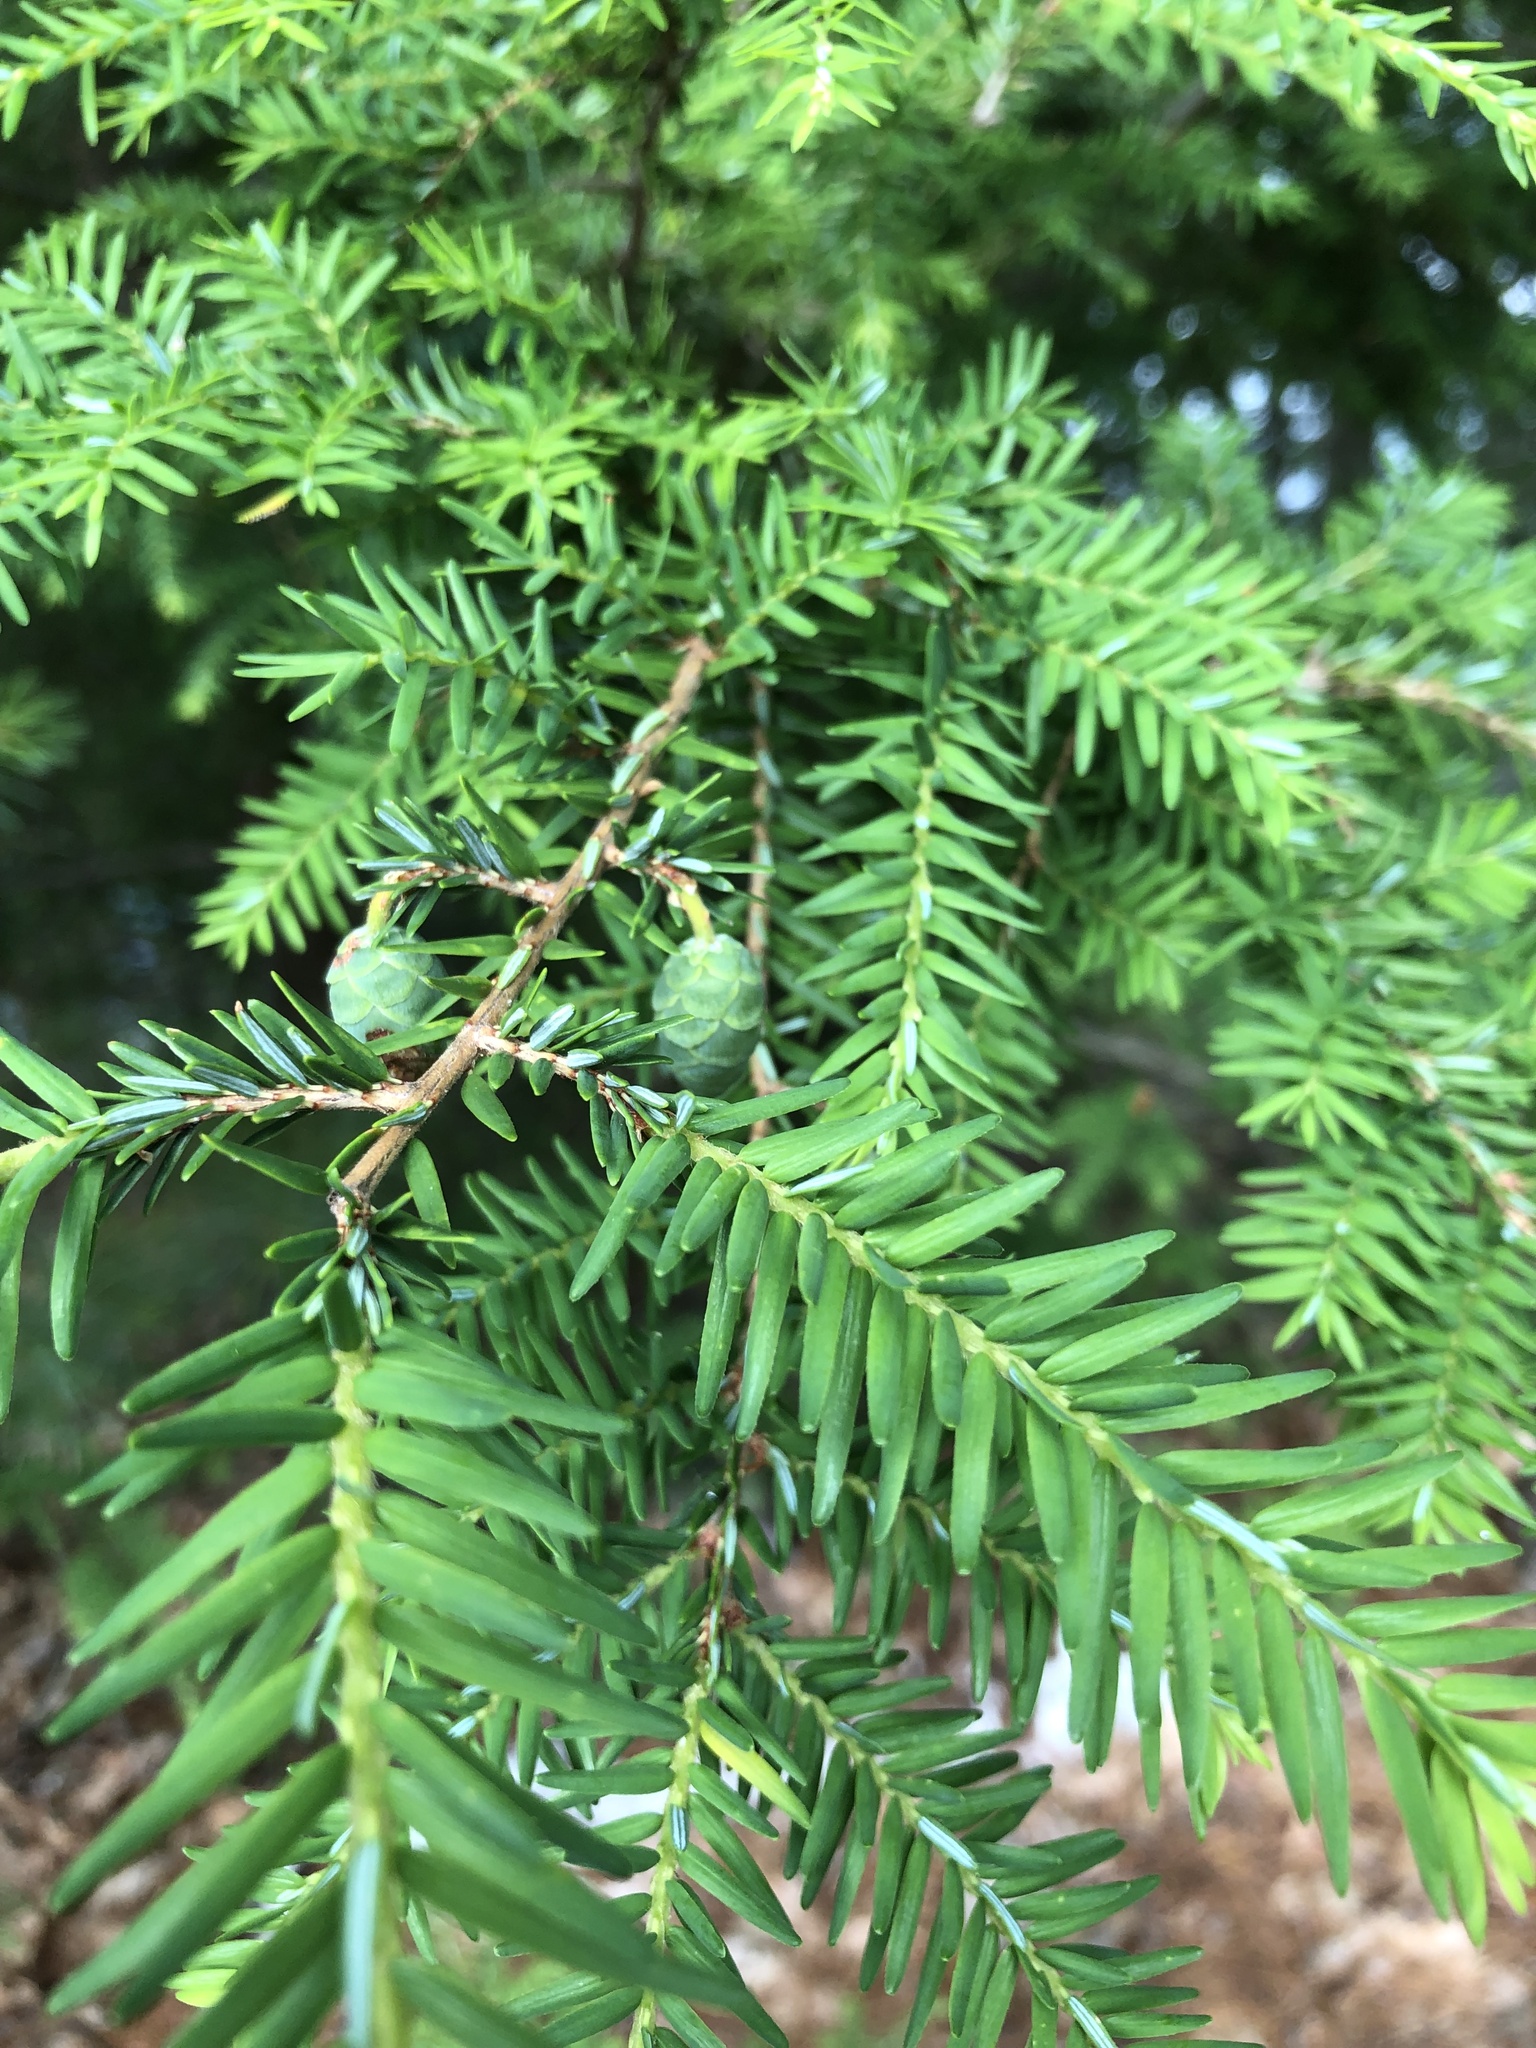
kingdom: Plantae
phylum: Tracheophyta
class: Pinopsida
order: Pinales
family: Pinaceae
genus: Tsuga
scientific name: Tsuga canadensis
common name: Eastern hemlock
